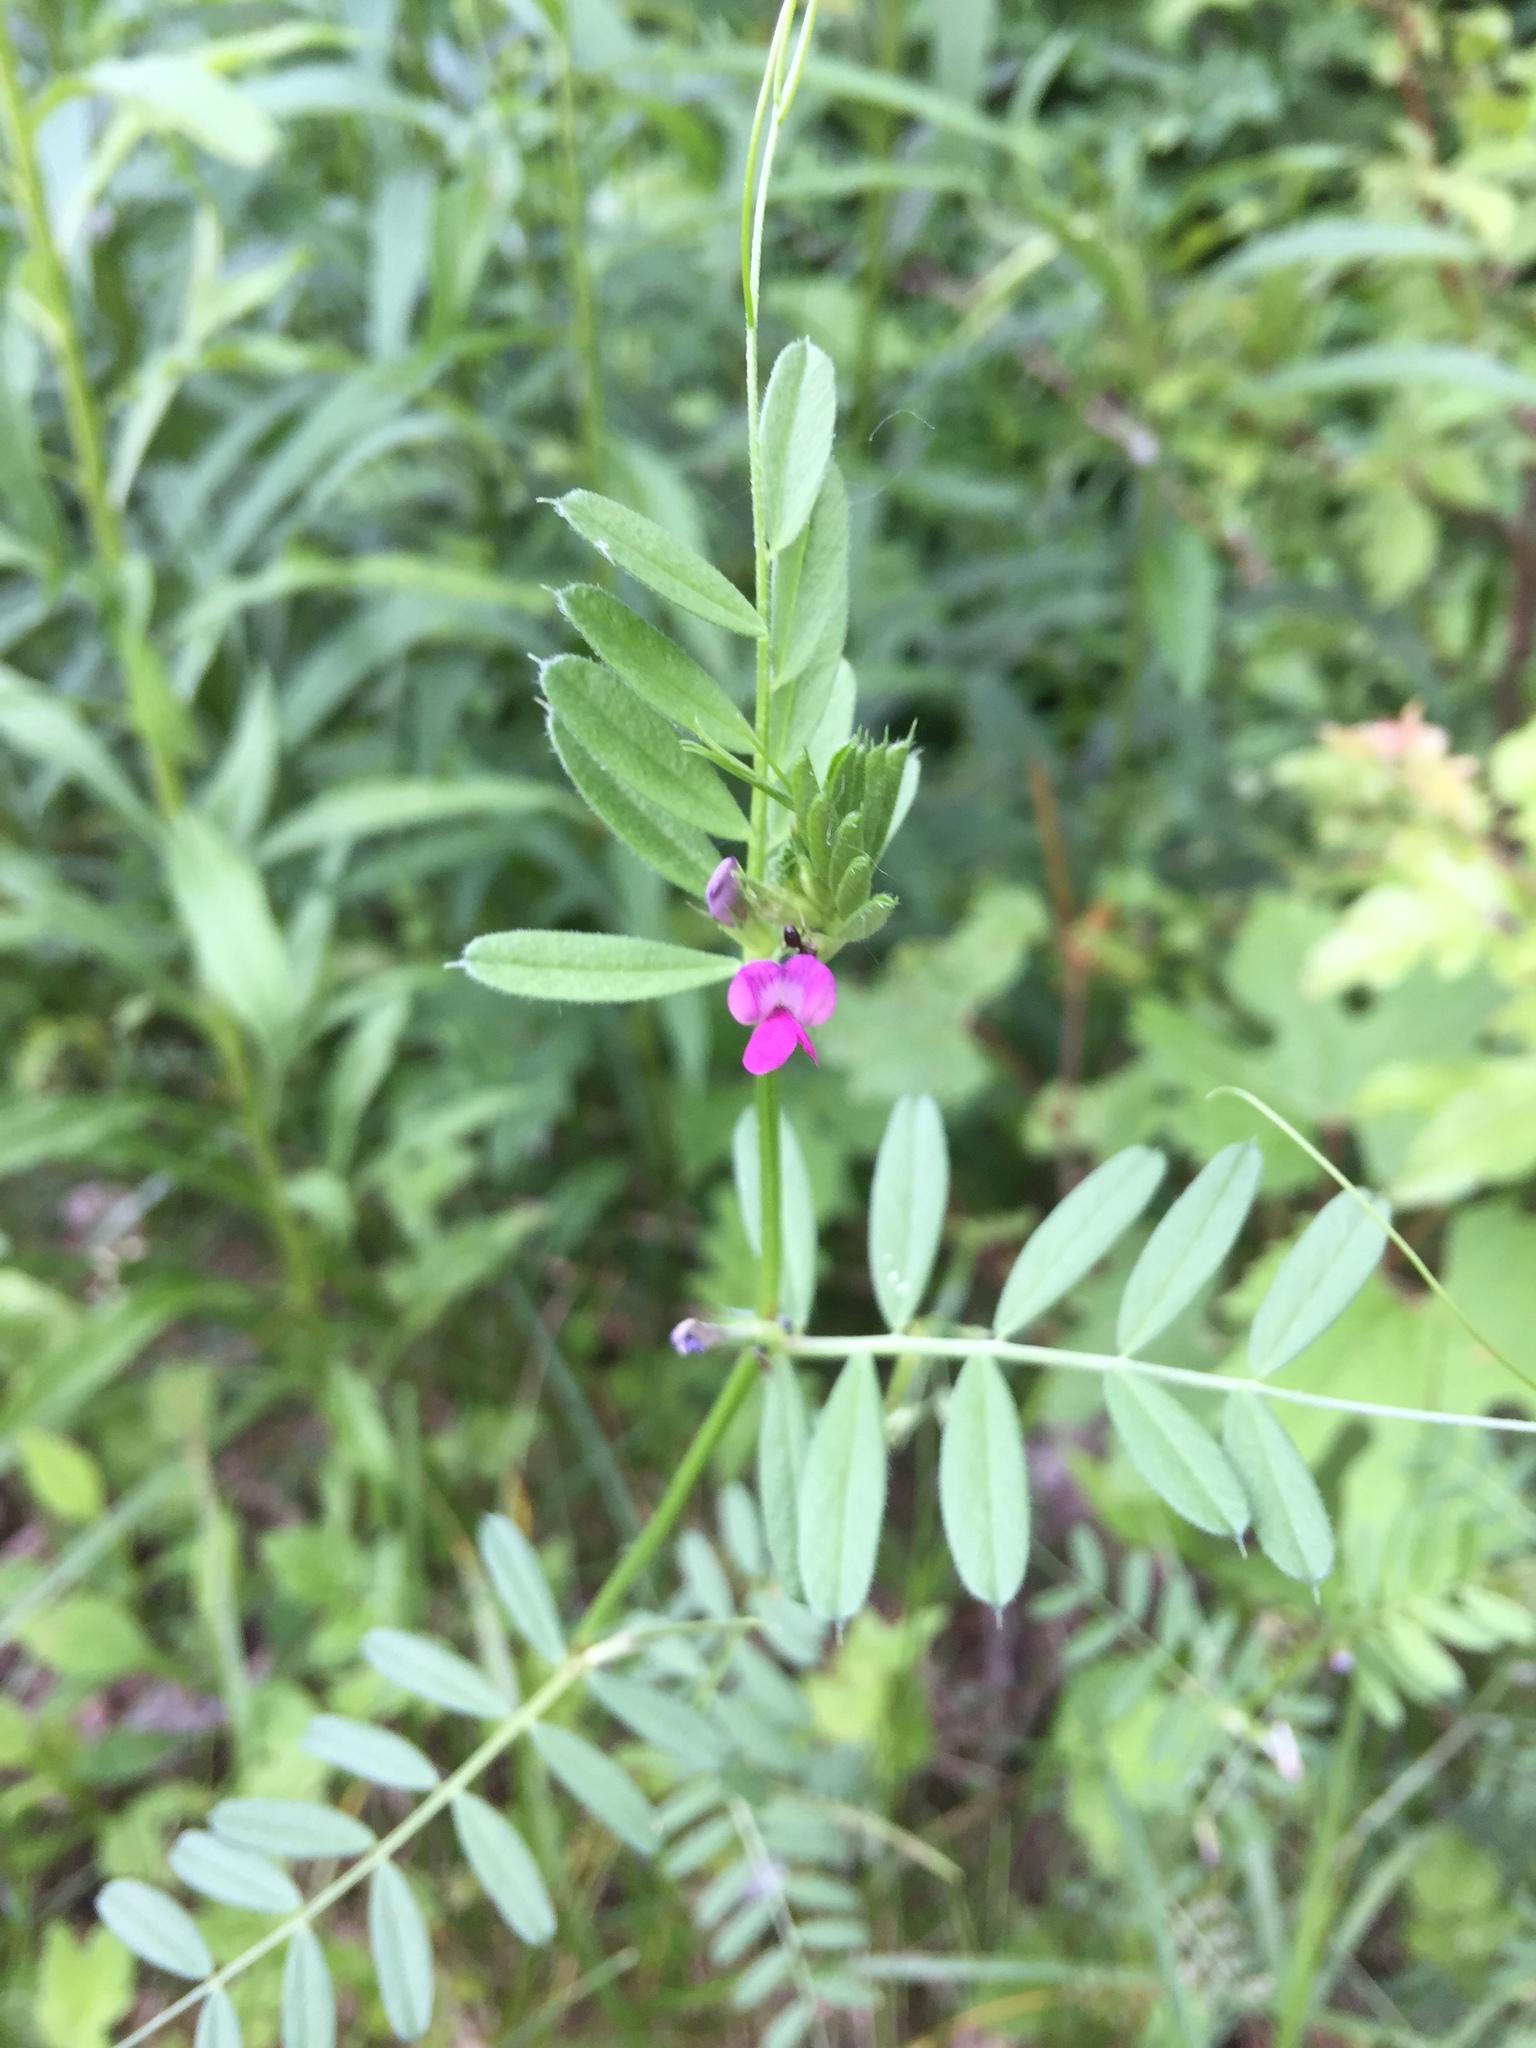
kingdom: Plantae
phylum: Tracheophyta
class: Magnoliopsida
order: Fabales
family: Fabaceae
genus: Vicia
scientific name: Vicia sativa
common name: Garden vetch
